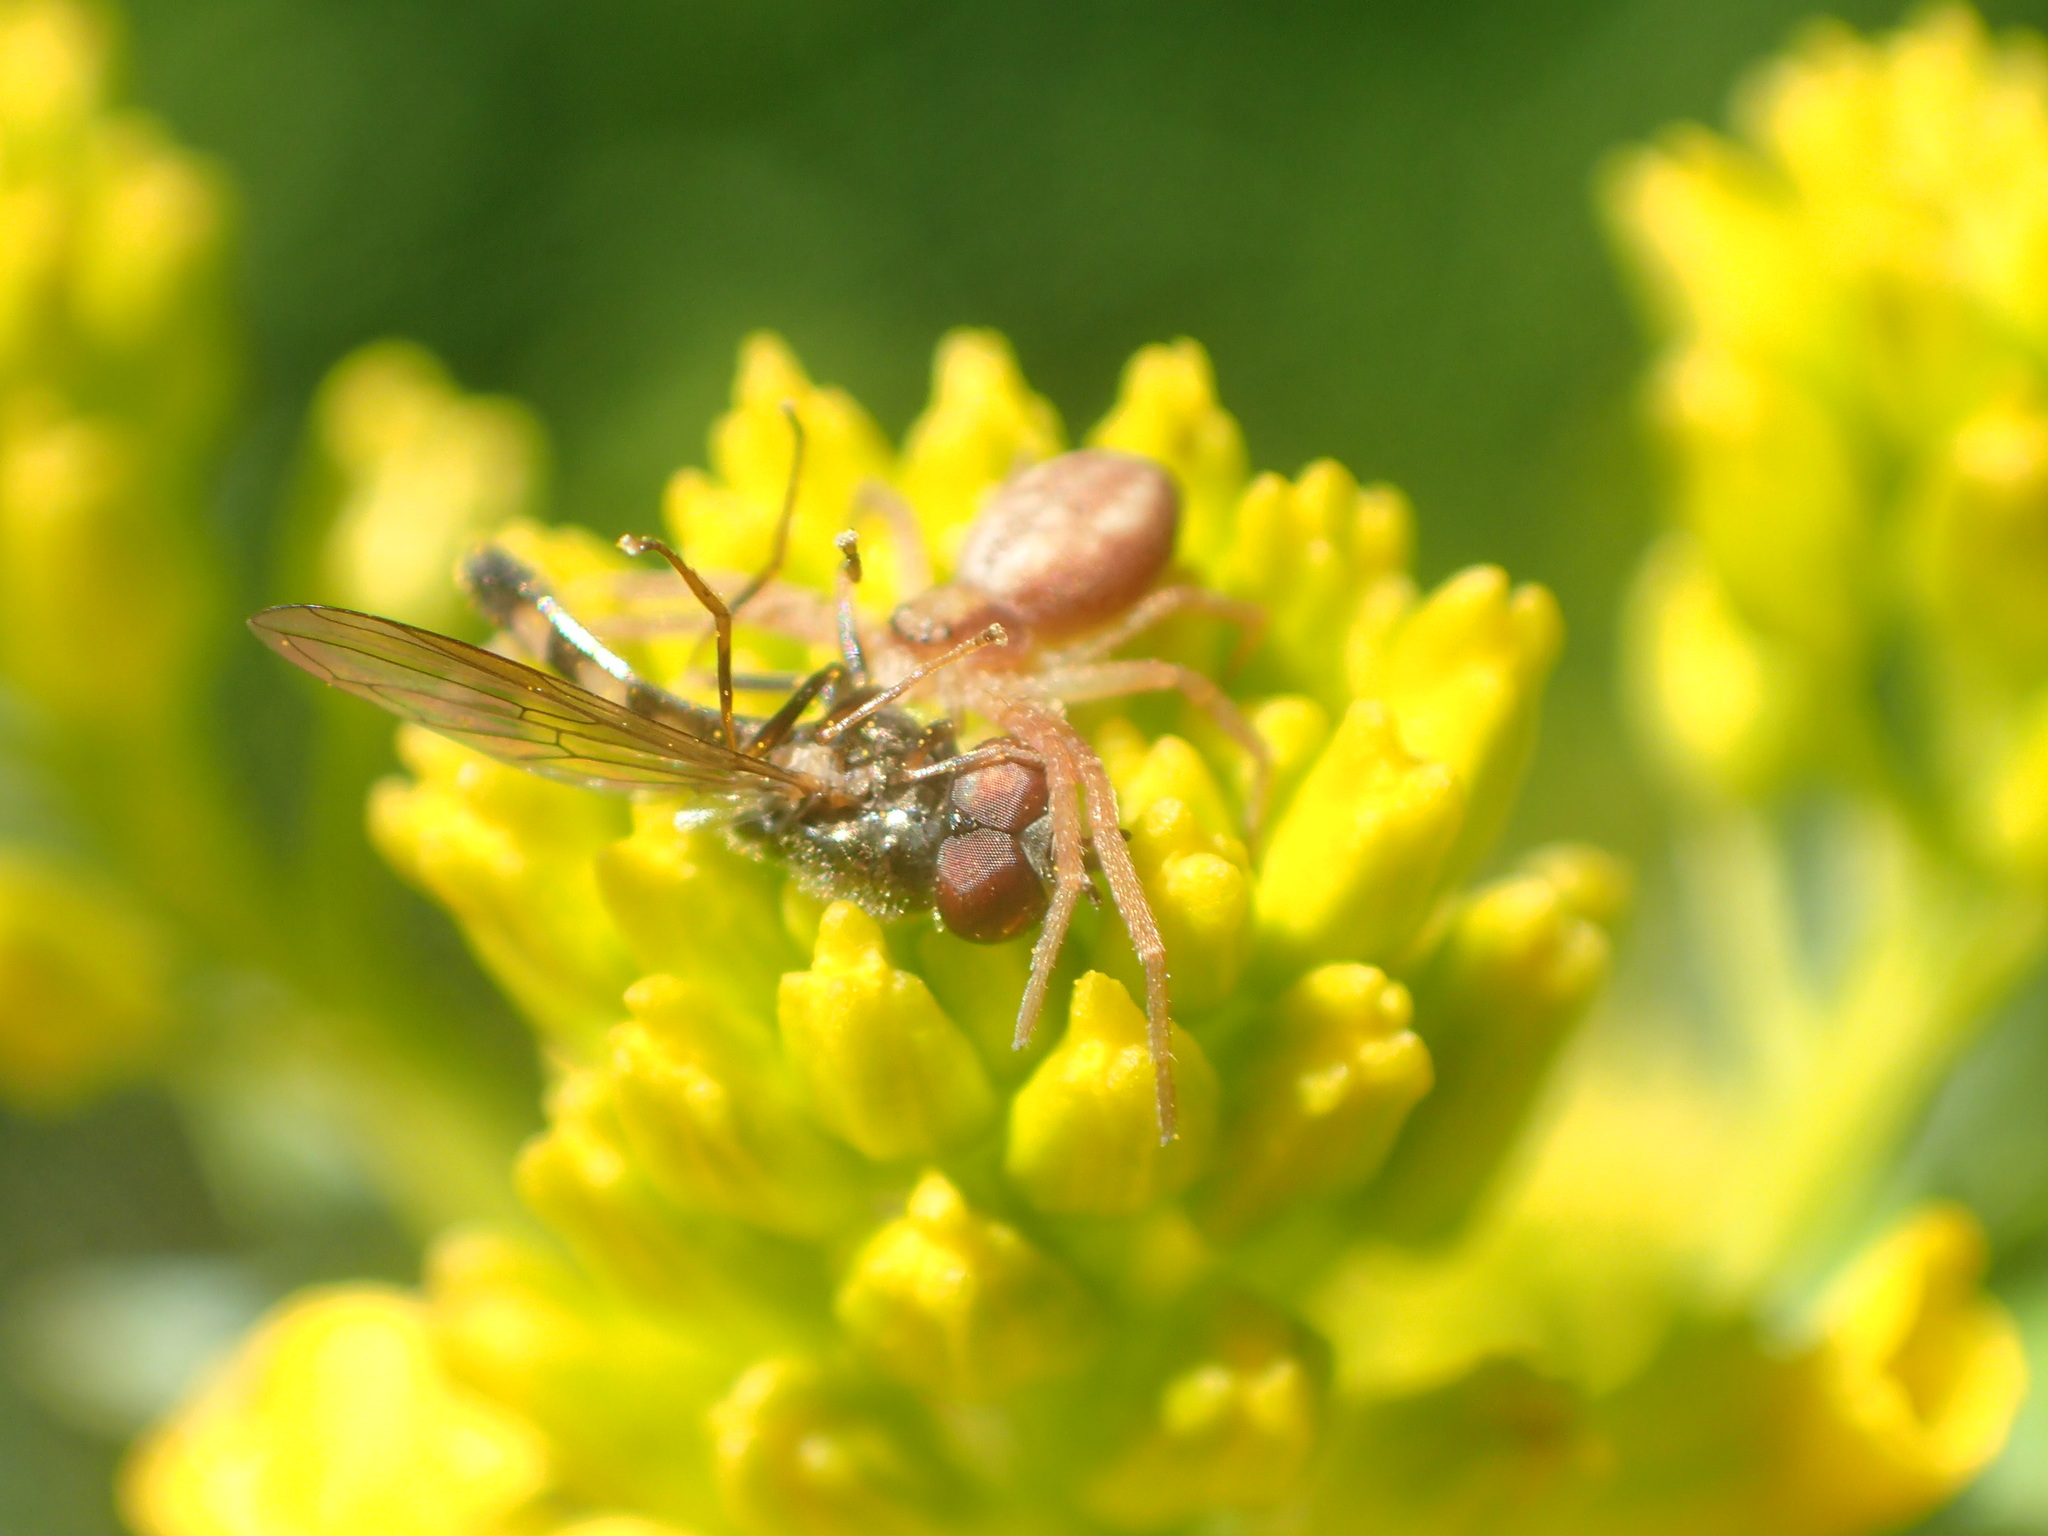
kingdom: Animalia
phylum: Arthropoda
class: Insecta
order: Diptera
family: Syrphidae
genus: Melanostoma
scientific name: Melanostoma mellina
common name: Hover fly
